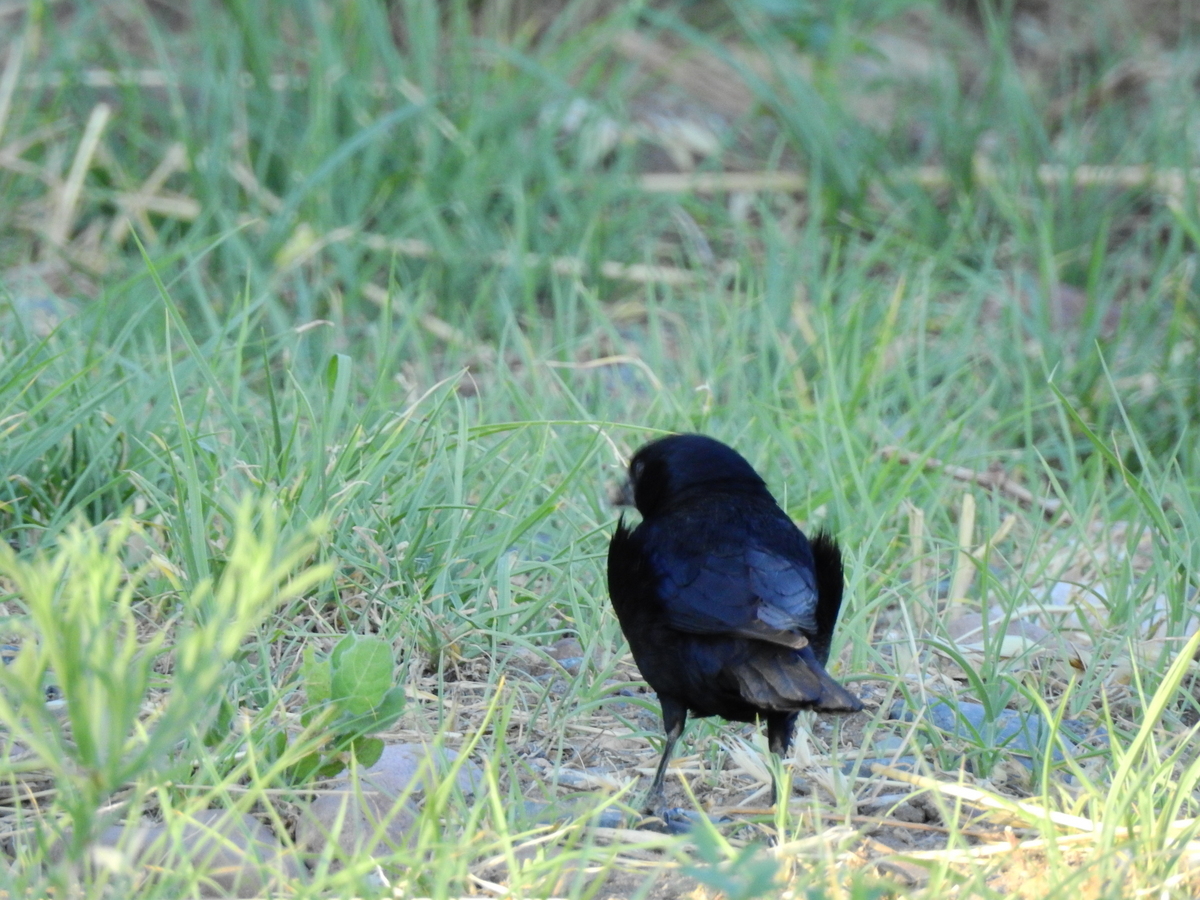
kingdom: Animalia
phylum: Chordata
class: Aves
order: Passeriformes
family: Icteridae
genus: Molothrus
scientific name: Molothrus rufoaxillaris
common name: Screaming cowbird
